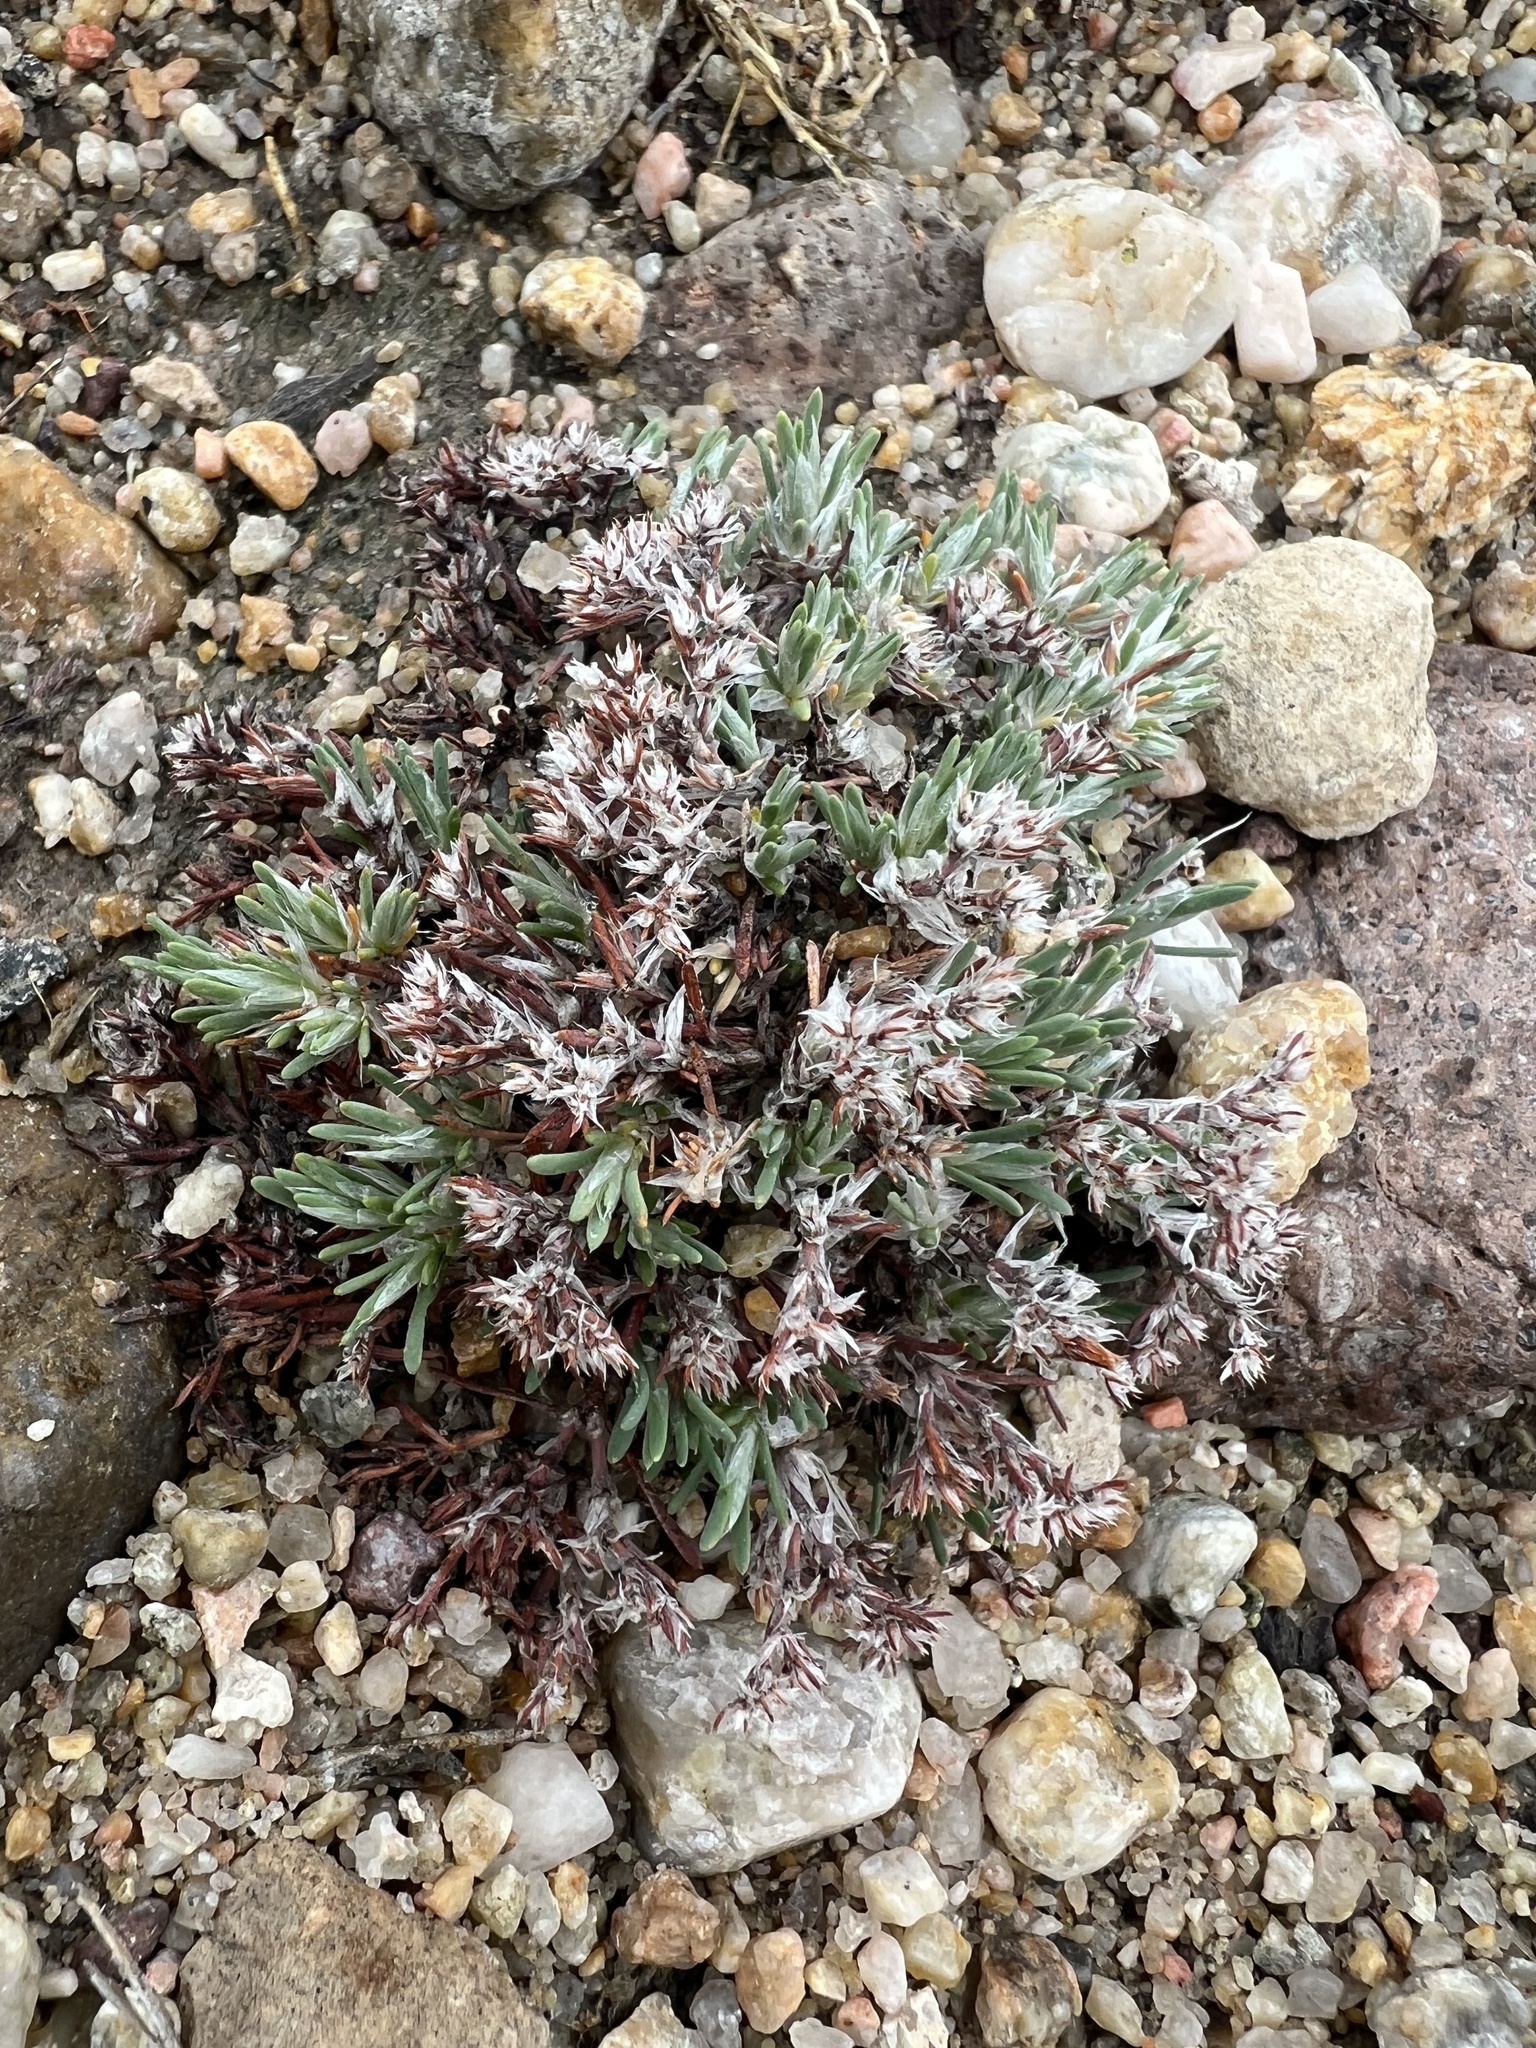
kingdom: Plantae
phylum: Tracheophyta
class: Magnoliopsida
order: Caryophyllales
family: Caryophyllaceae
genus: Paronychia
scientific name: Paronychia depressa
